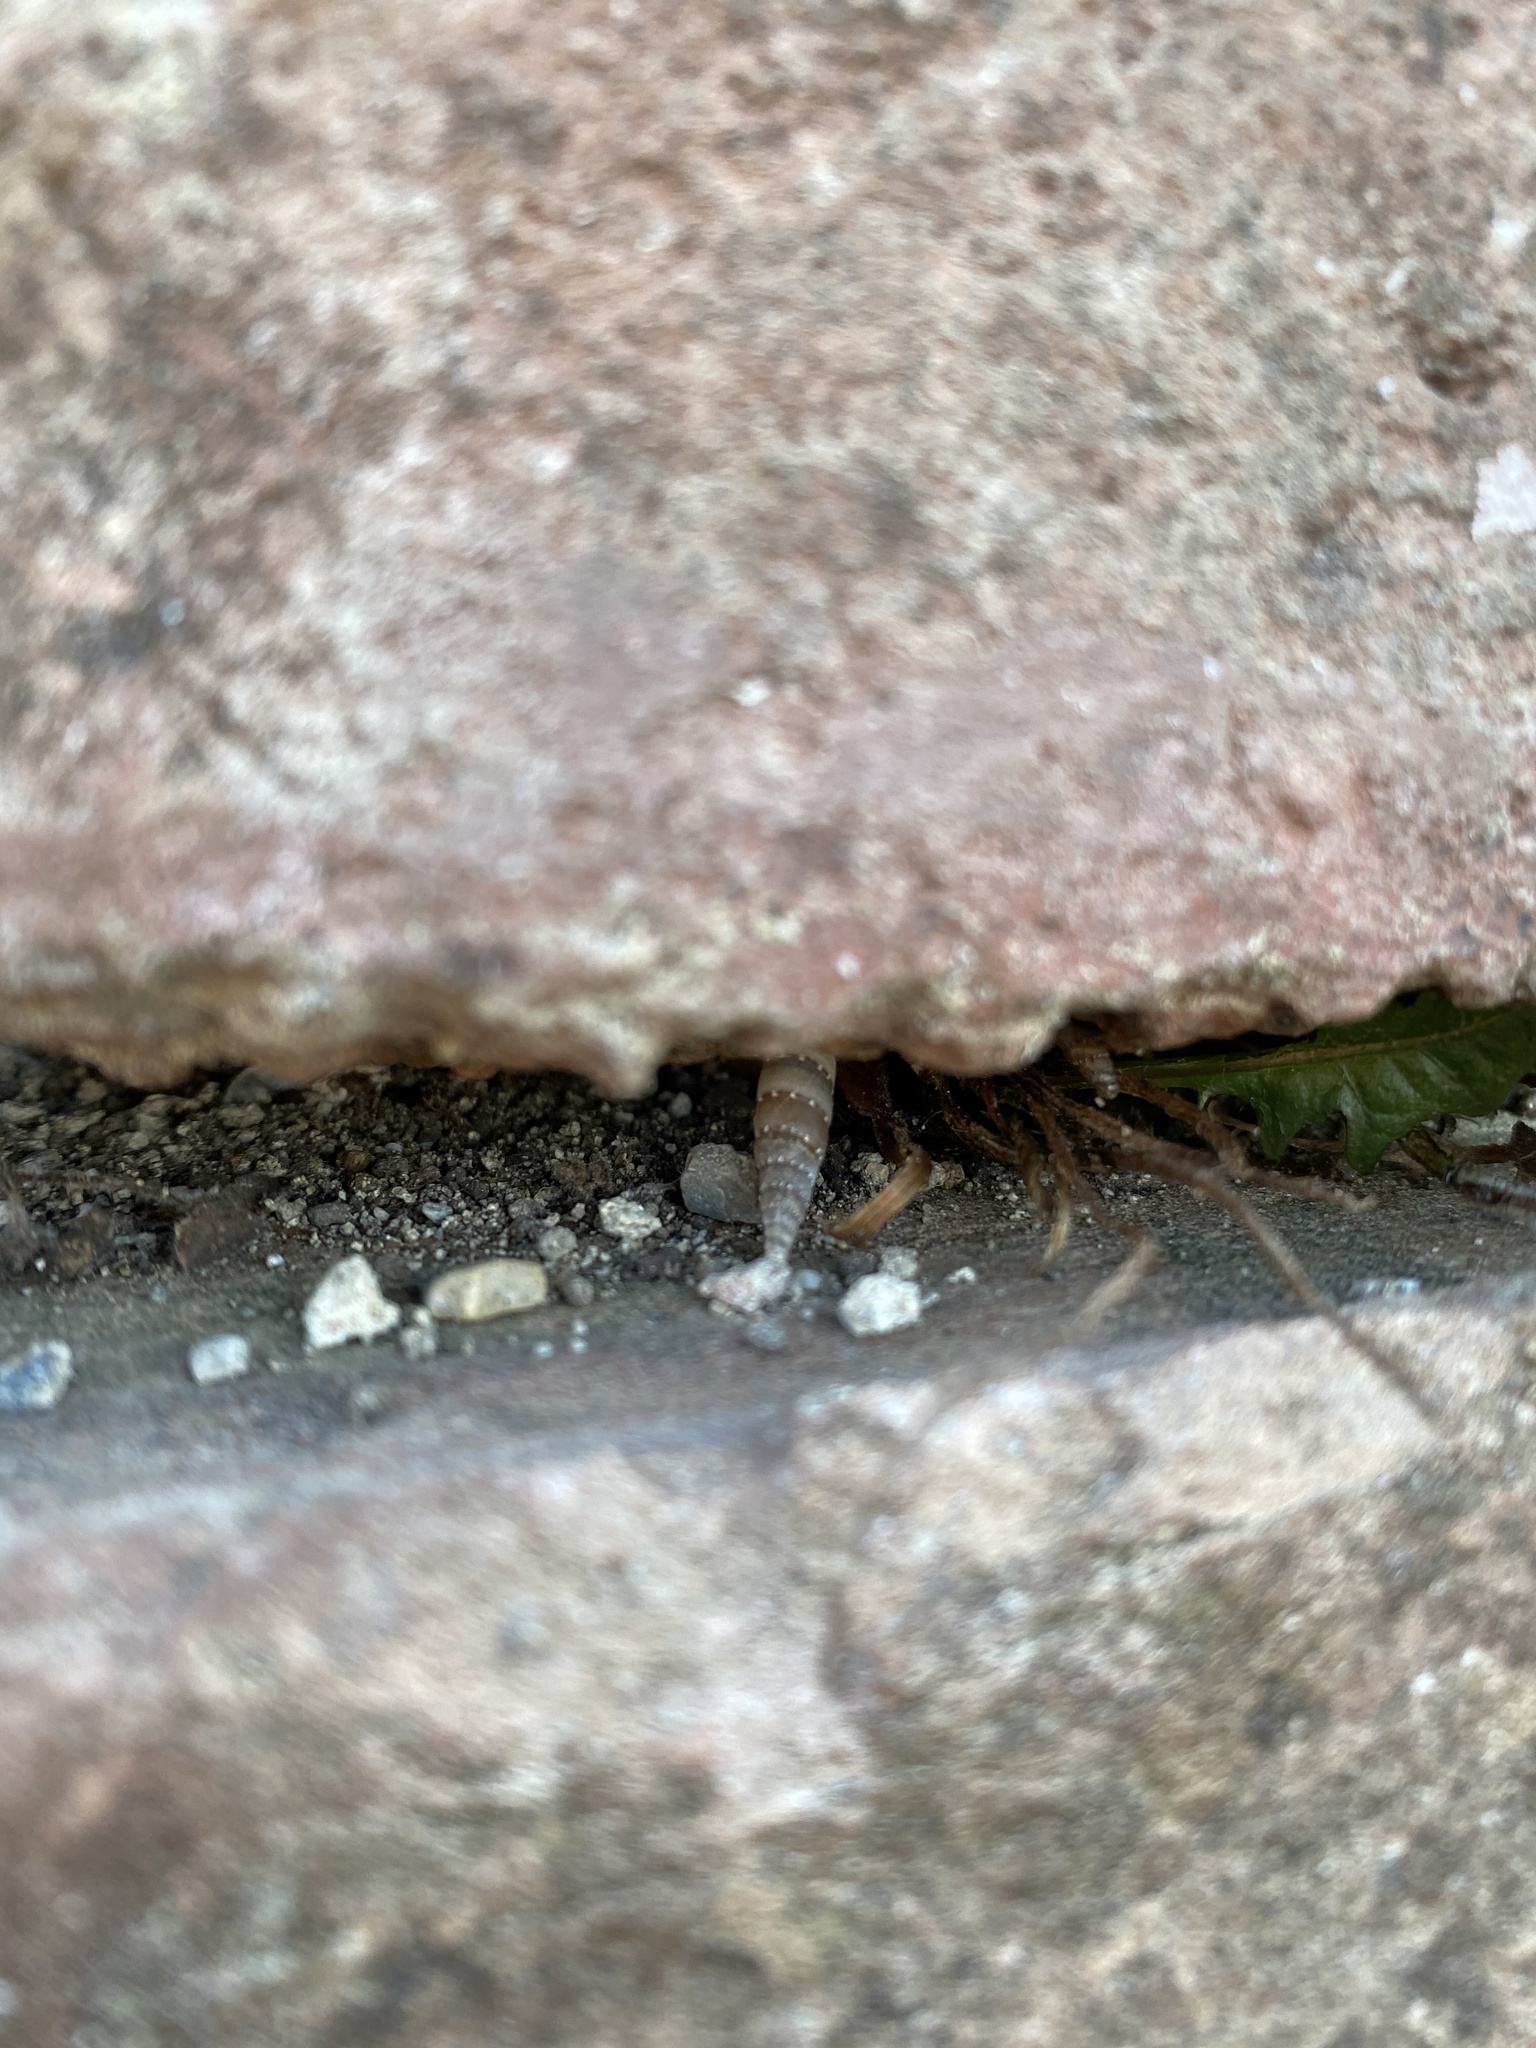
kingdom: Animalia
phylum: Mollusca
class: Gastropoda
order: Stylommatophora
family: Clausiliidae
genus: Papillifera
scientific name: Papillifera papillaris
